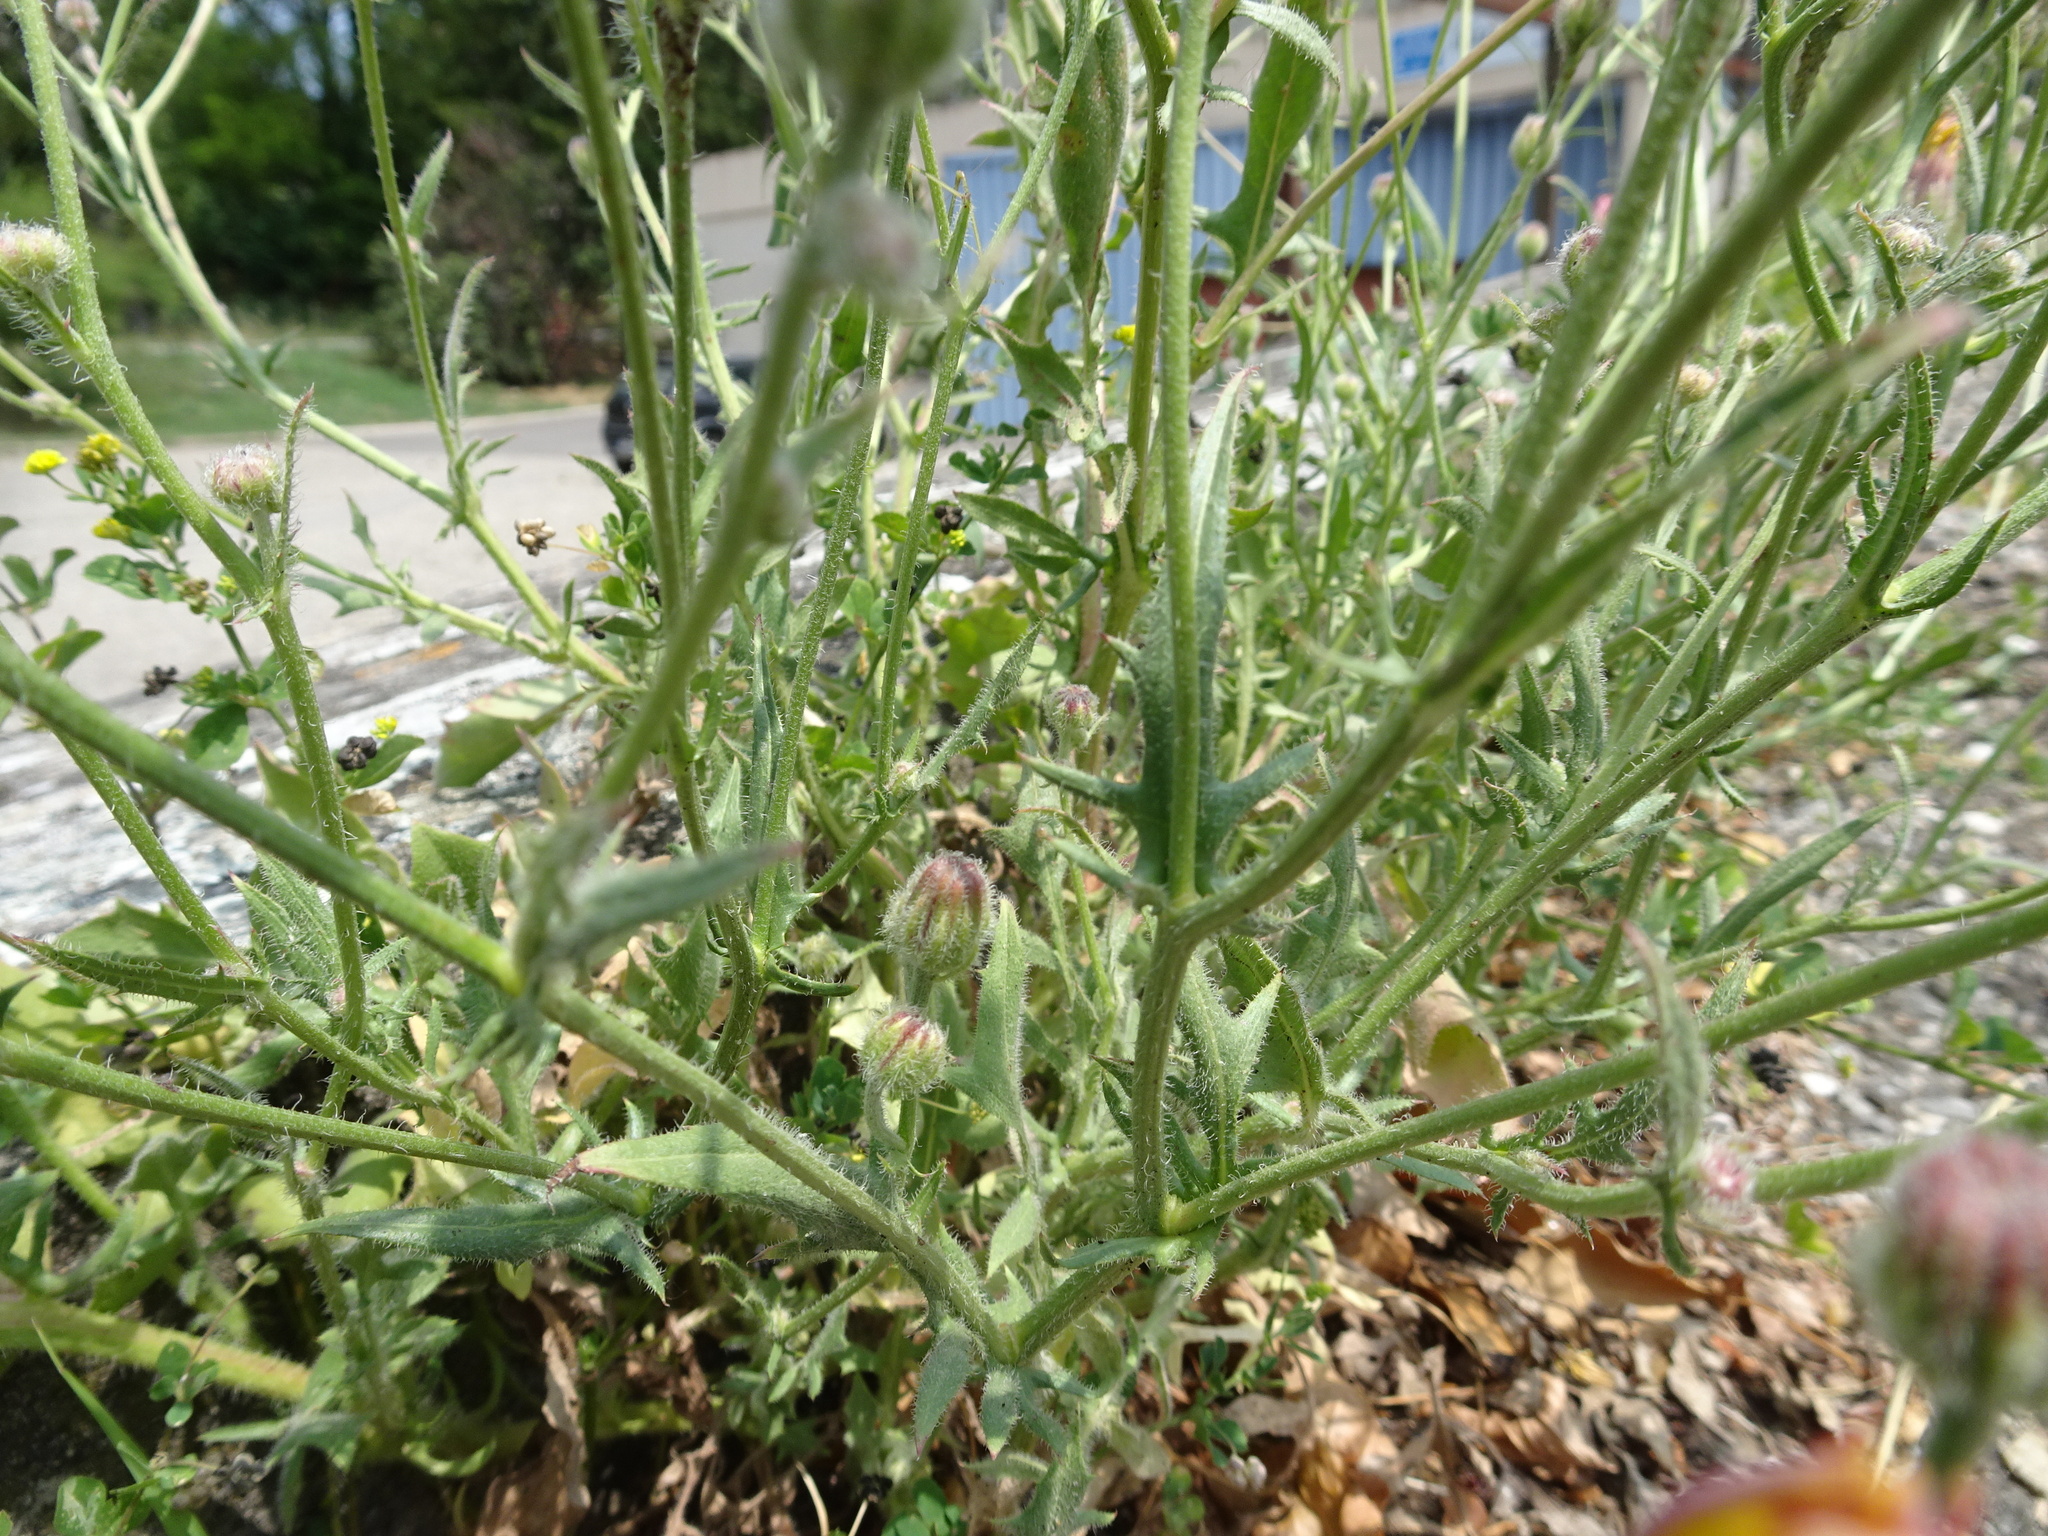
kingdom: Plantae
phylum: Tracheophyta
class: Magnoliopsida
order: Asterales
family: Asteraceae
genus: Crepis
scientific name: Crepis foetida
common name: Stinking hawk's-beard
